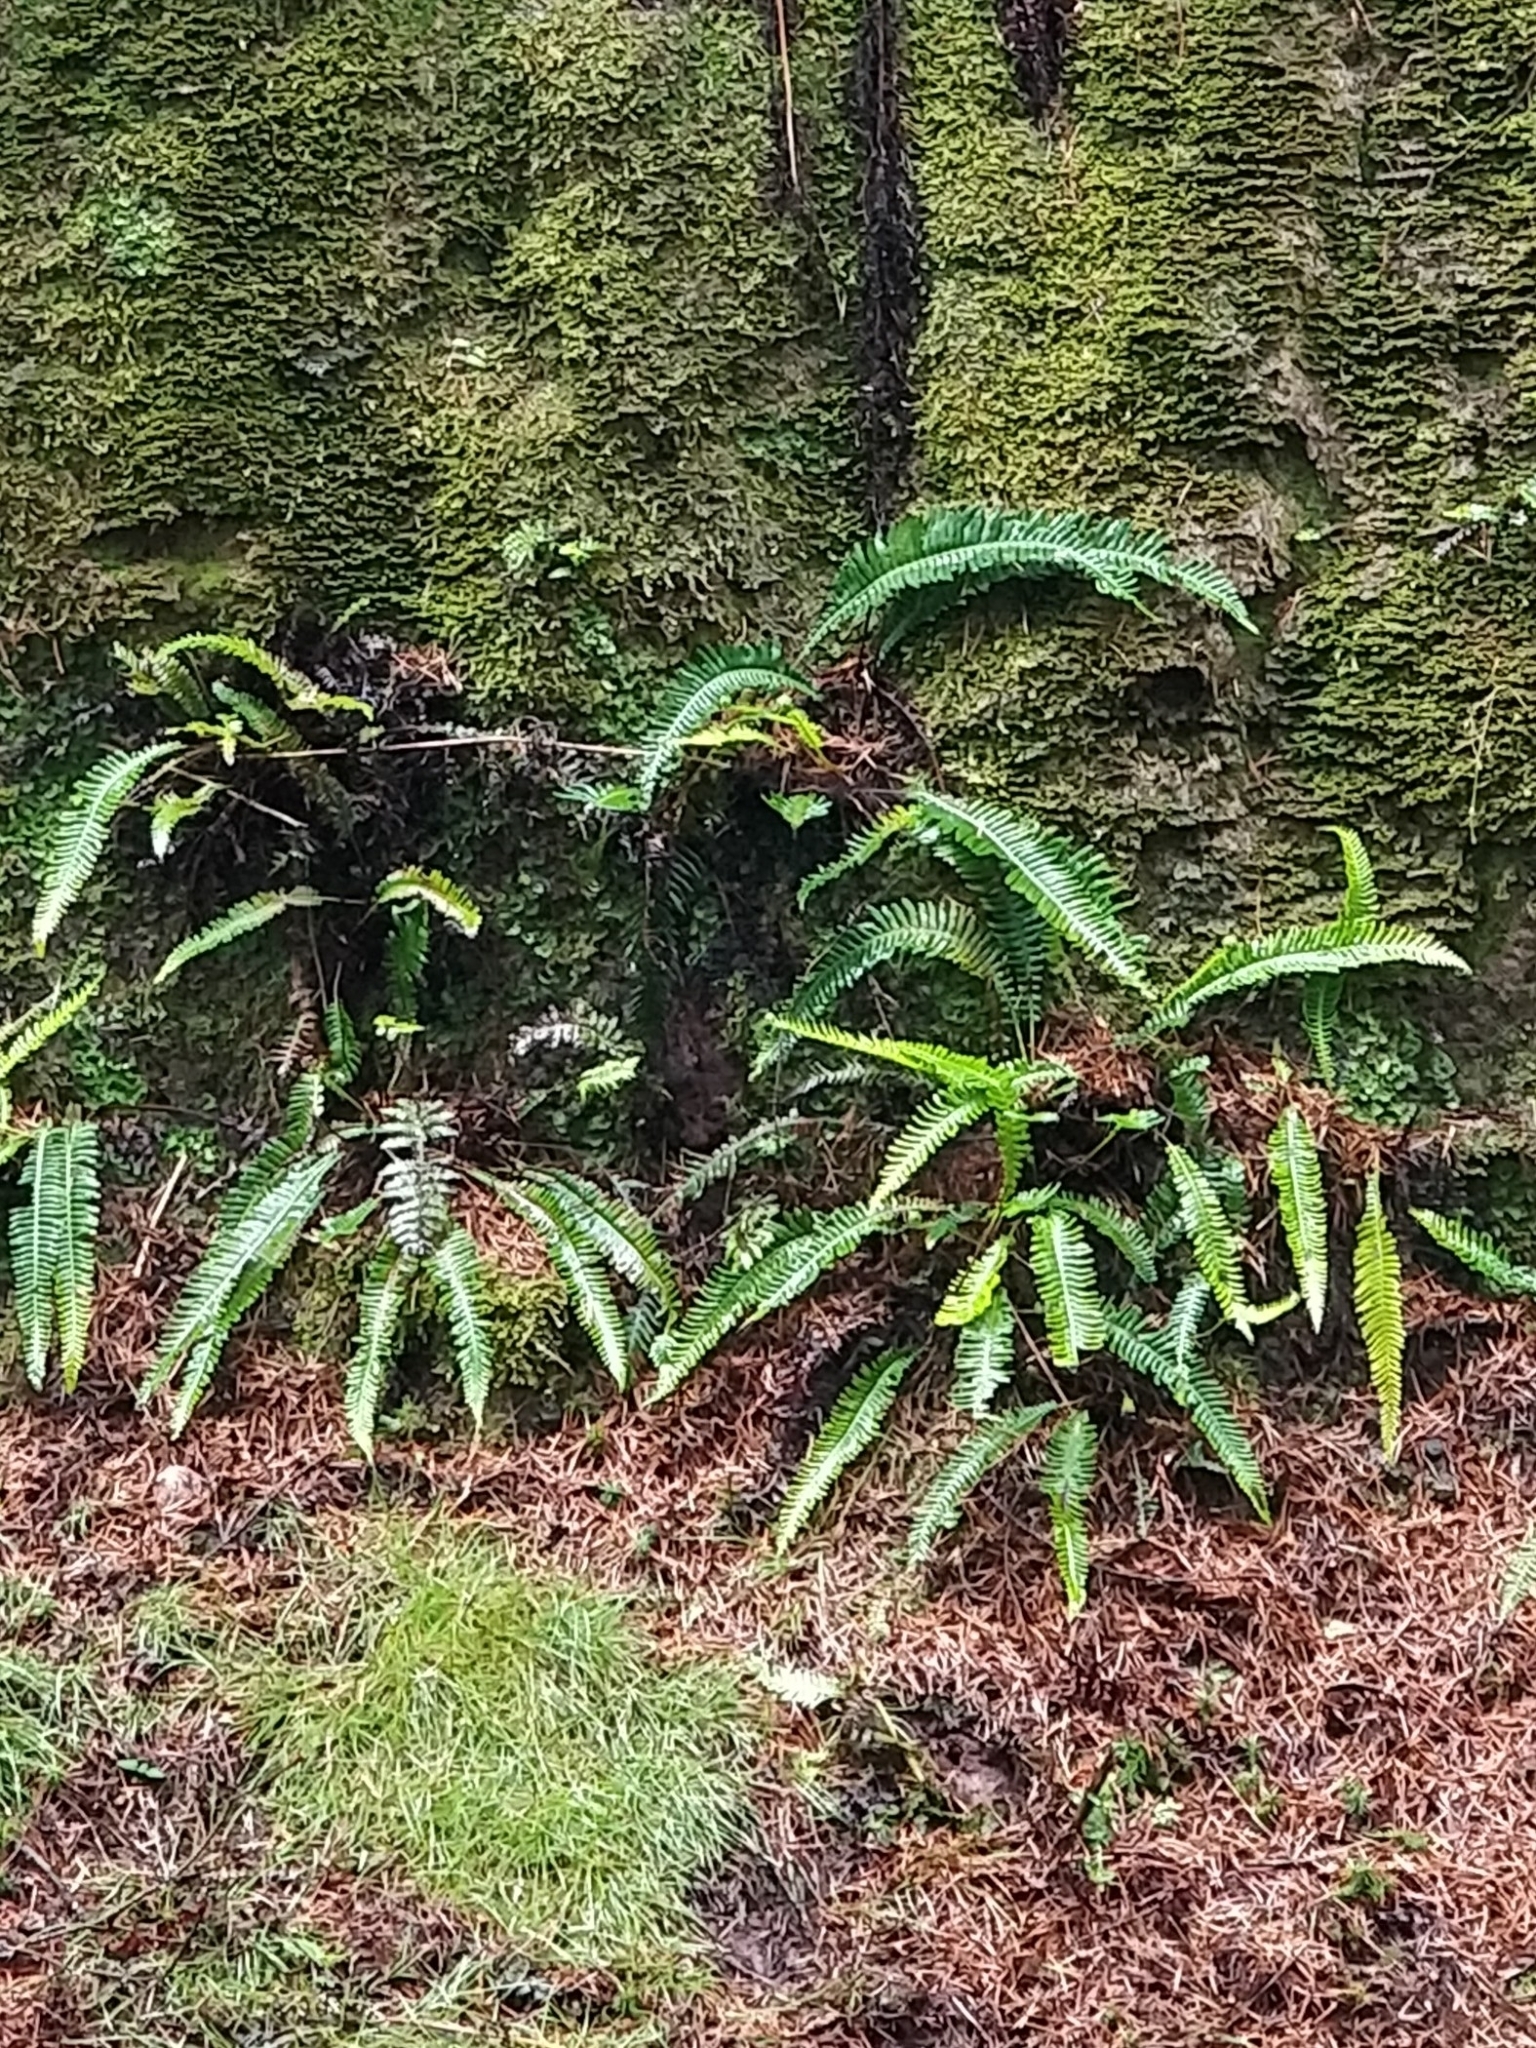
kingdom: Plantae
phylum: Tracheophyta
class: Polypodiopsida
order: Polypodiales
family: Blechnaceae
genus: Struthiopteris
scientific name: Struthiopteris spicant
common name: Deer fern
